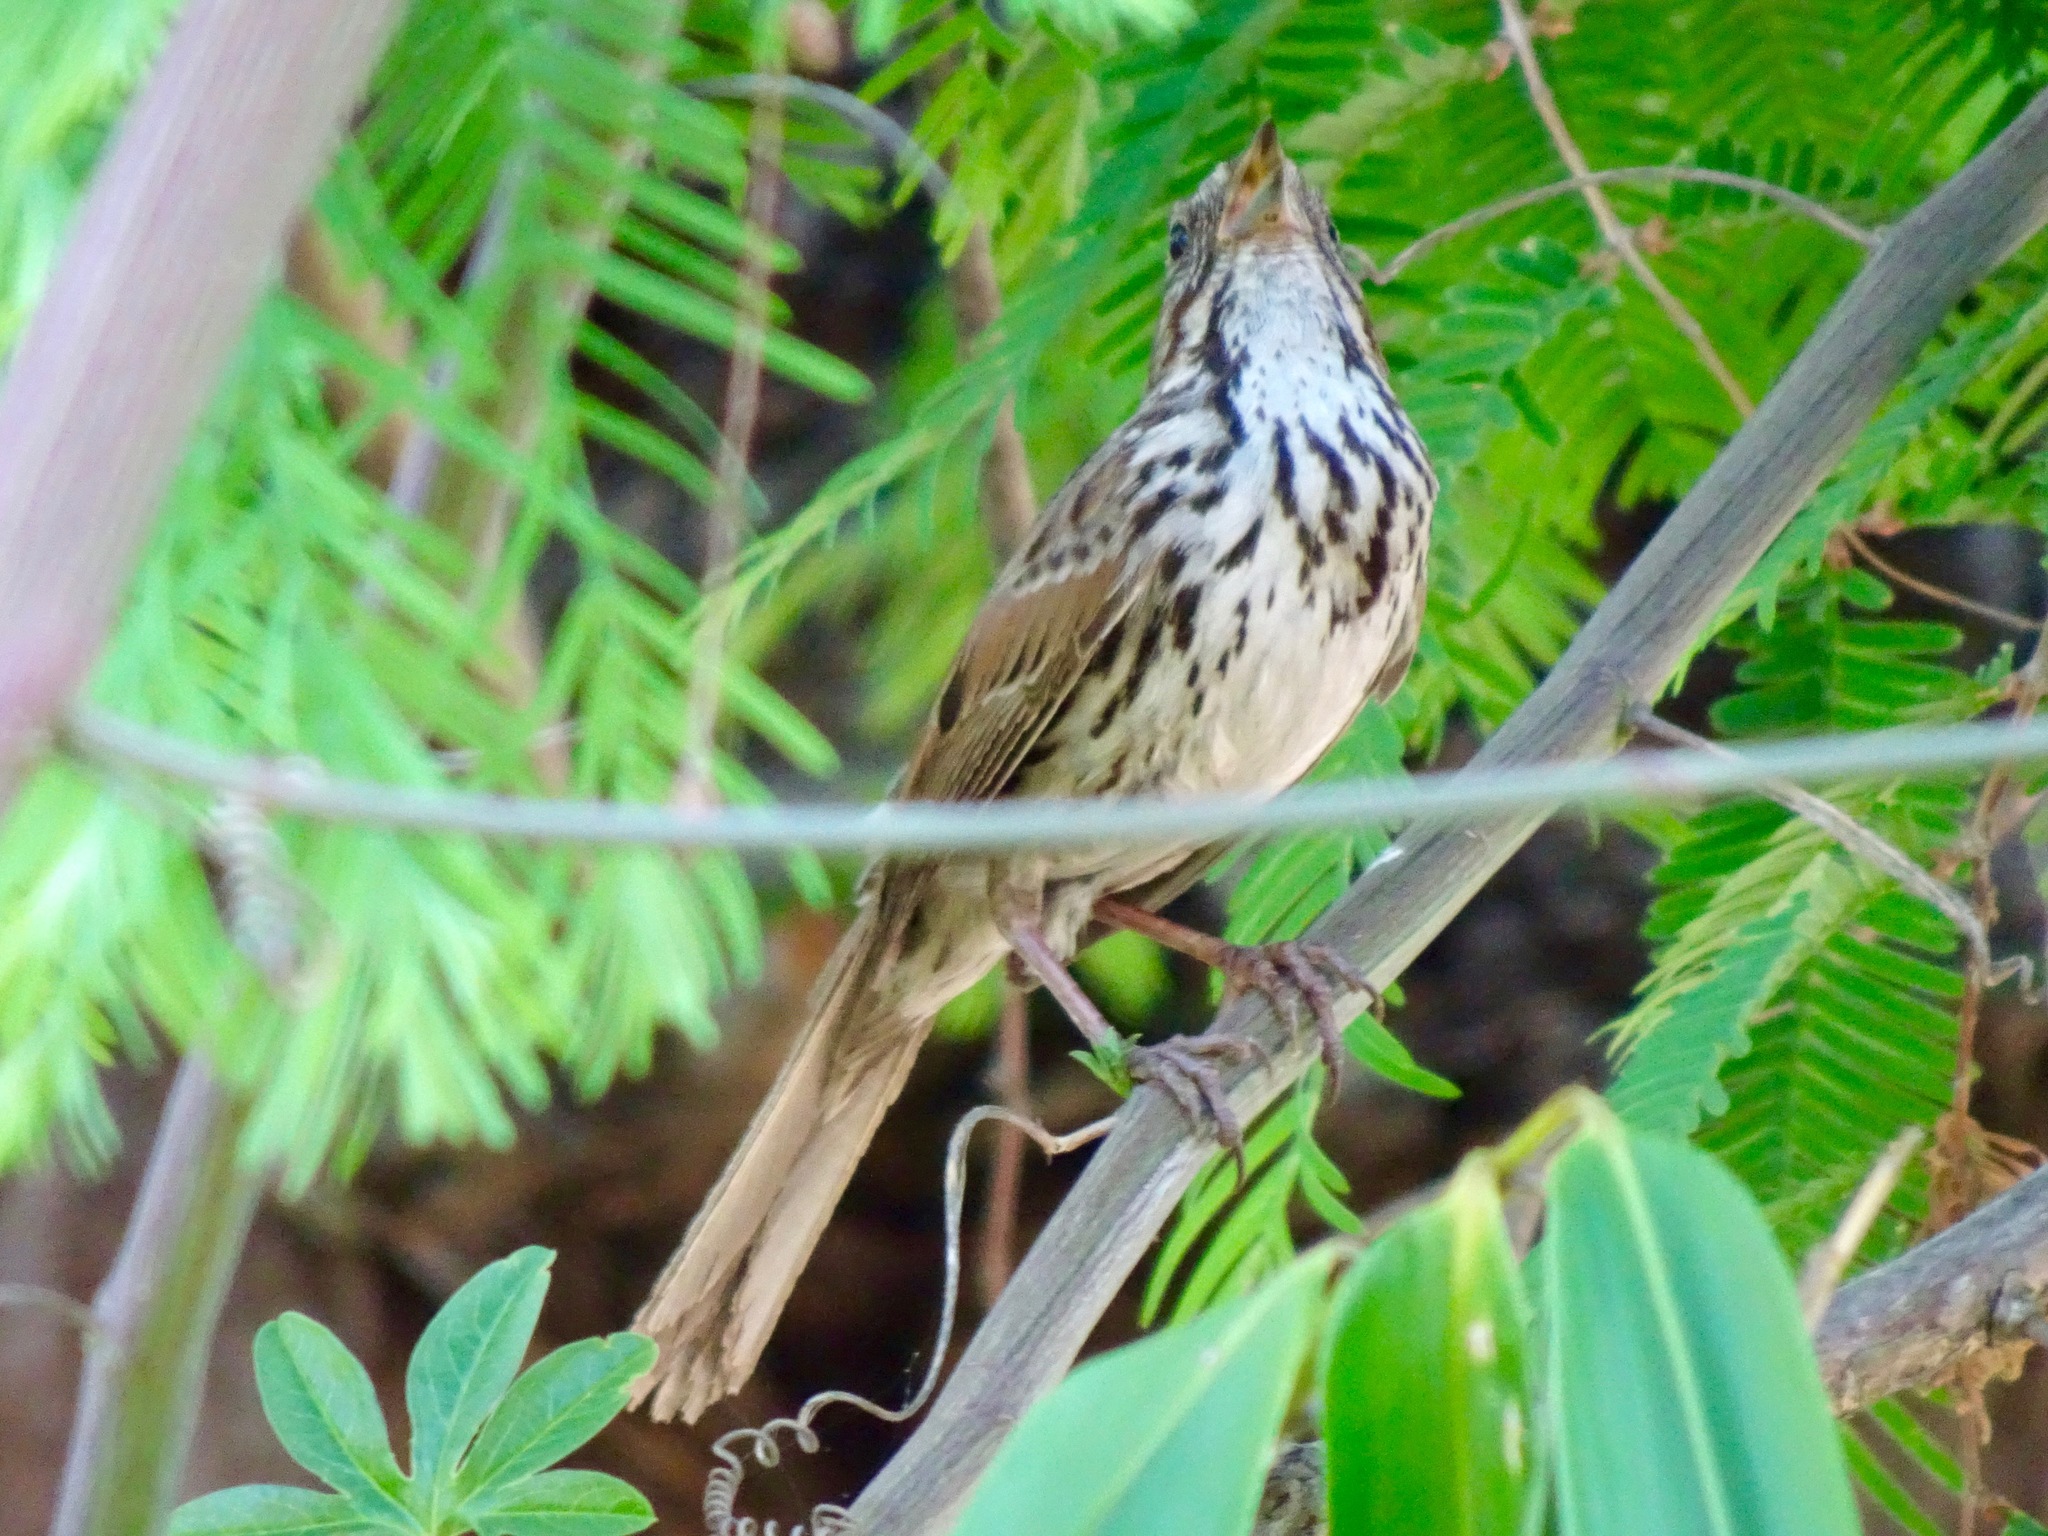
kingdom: Animalia
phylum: Chordata
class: Aves
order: Passeriformes
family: Passerellidae
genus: Melospiza
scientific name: Melospiza melodia
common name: Song sparrow
